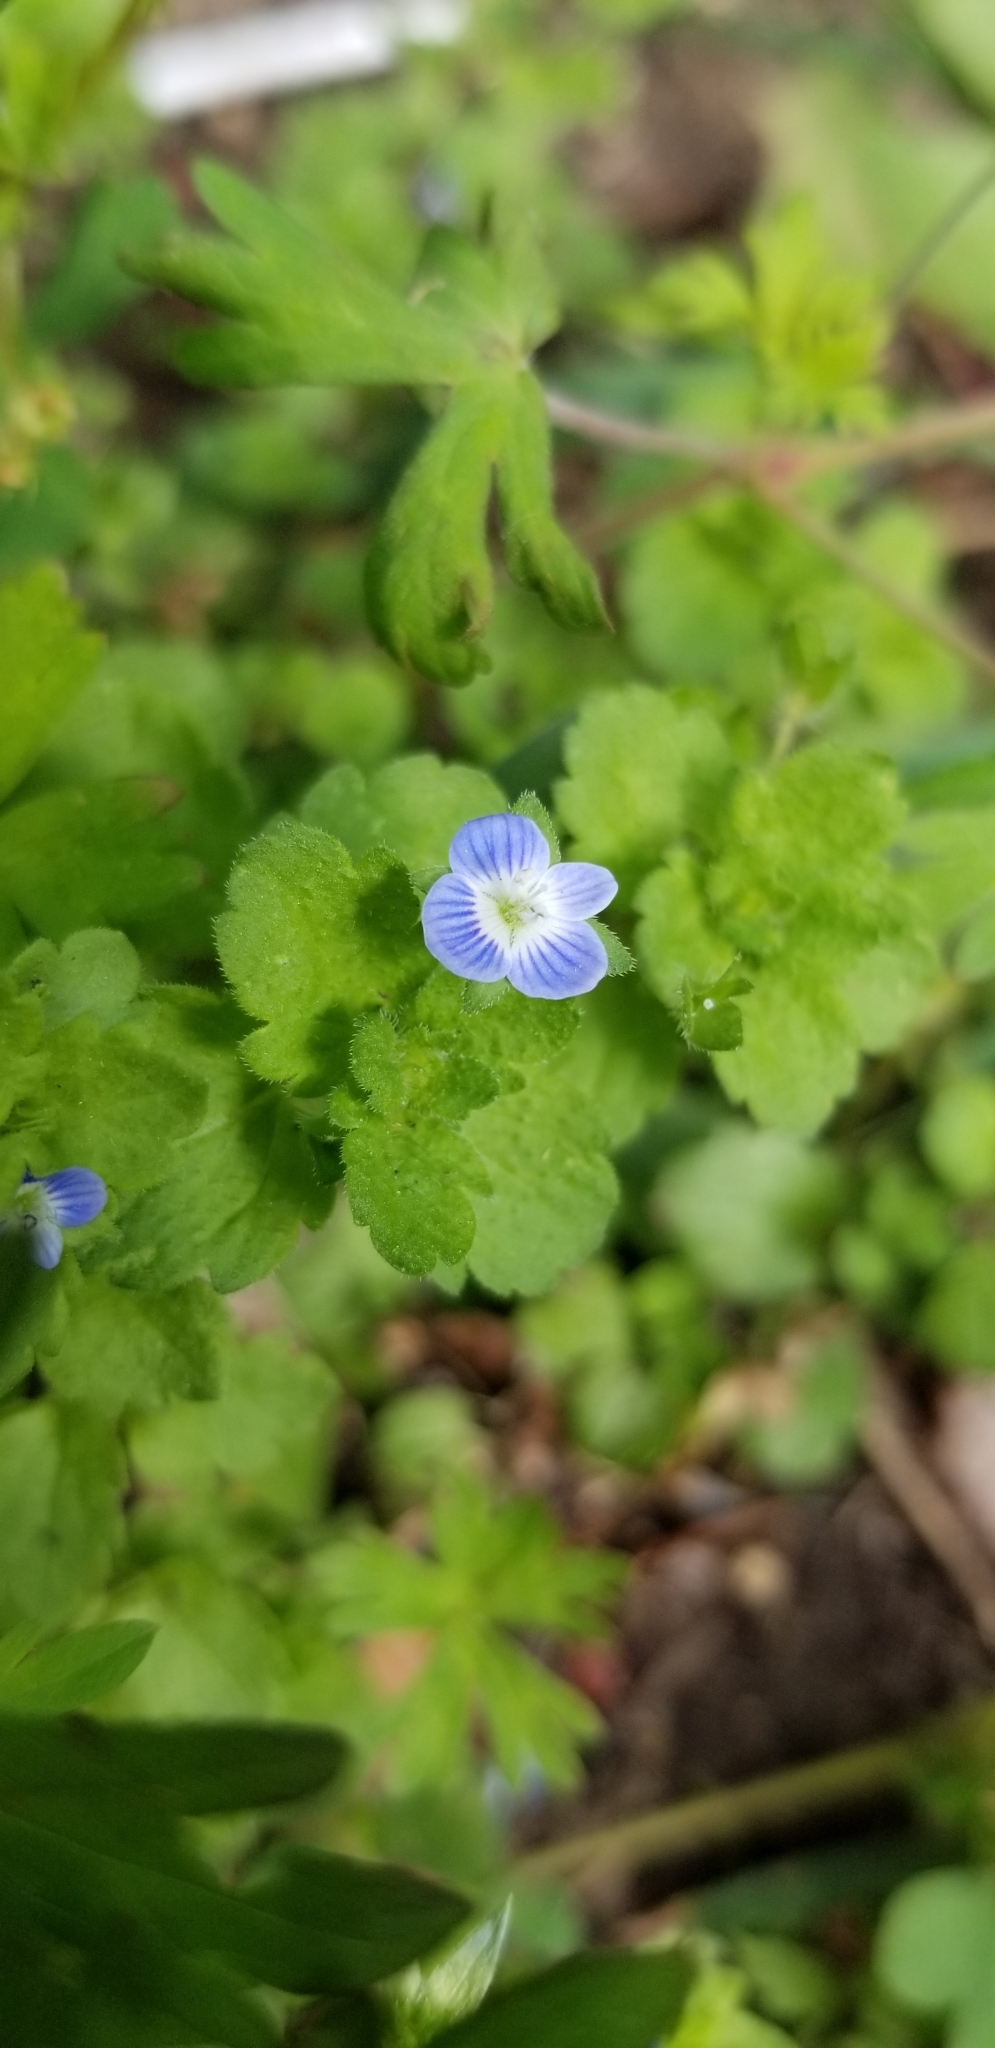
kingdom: Plantae
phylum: Tracheophyta
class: Magnoliopsida
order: Lamiales
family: Plantaginaceae
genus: Veronica
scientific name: Veronica persica
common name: Common field-speedwell
